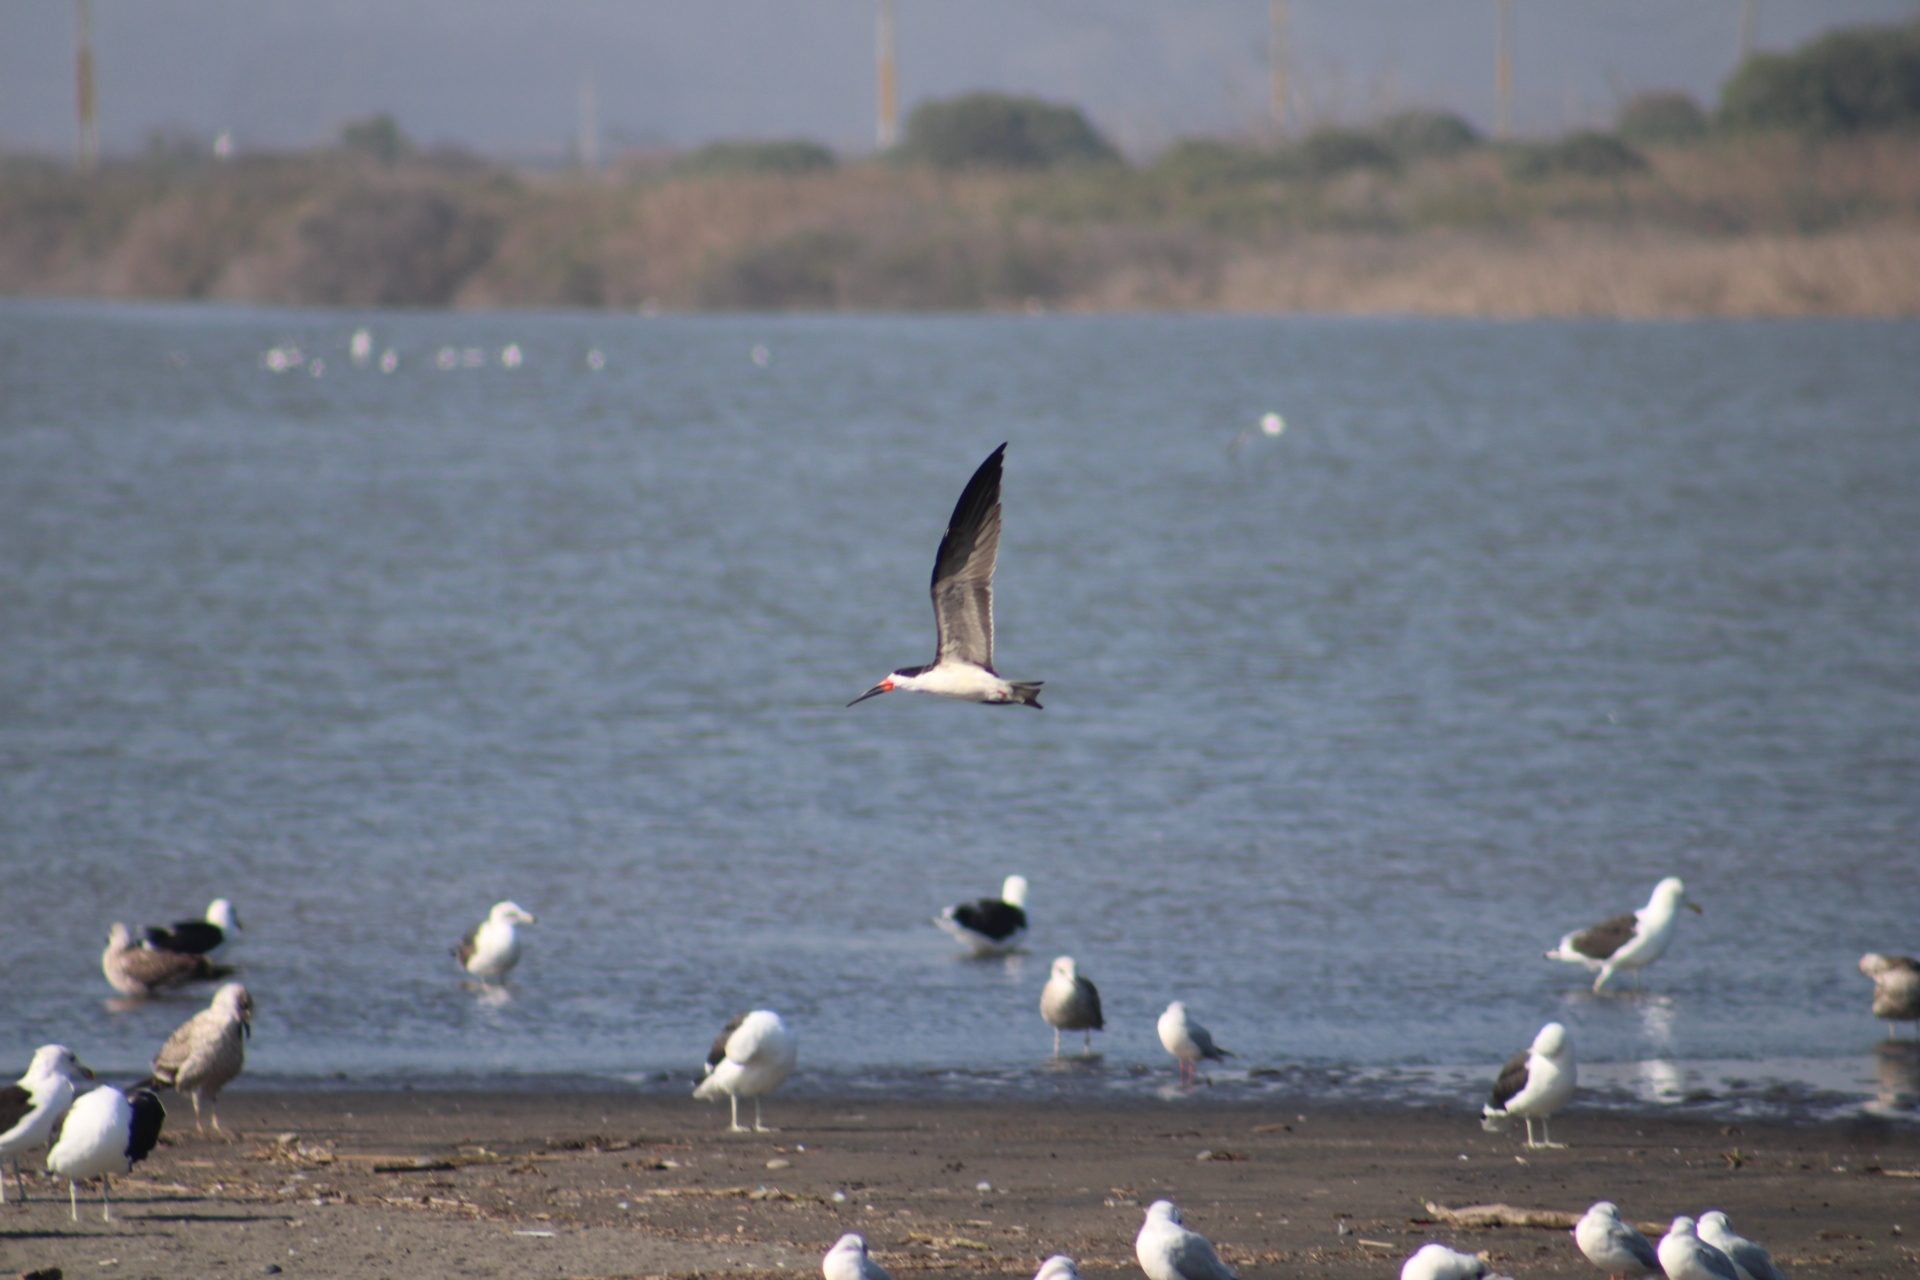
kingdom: Animalia
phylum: Chordata
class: Aves
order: Charadriiformes
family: Laridae
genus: Rynchops
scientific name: Rynchops niger
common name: Black skimmer
